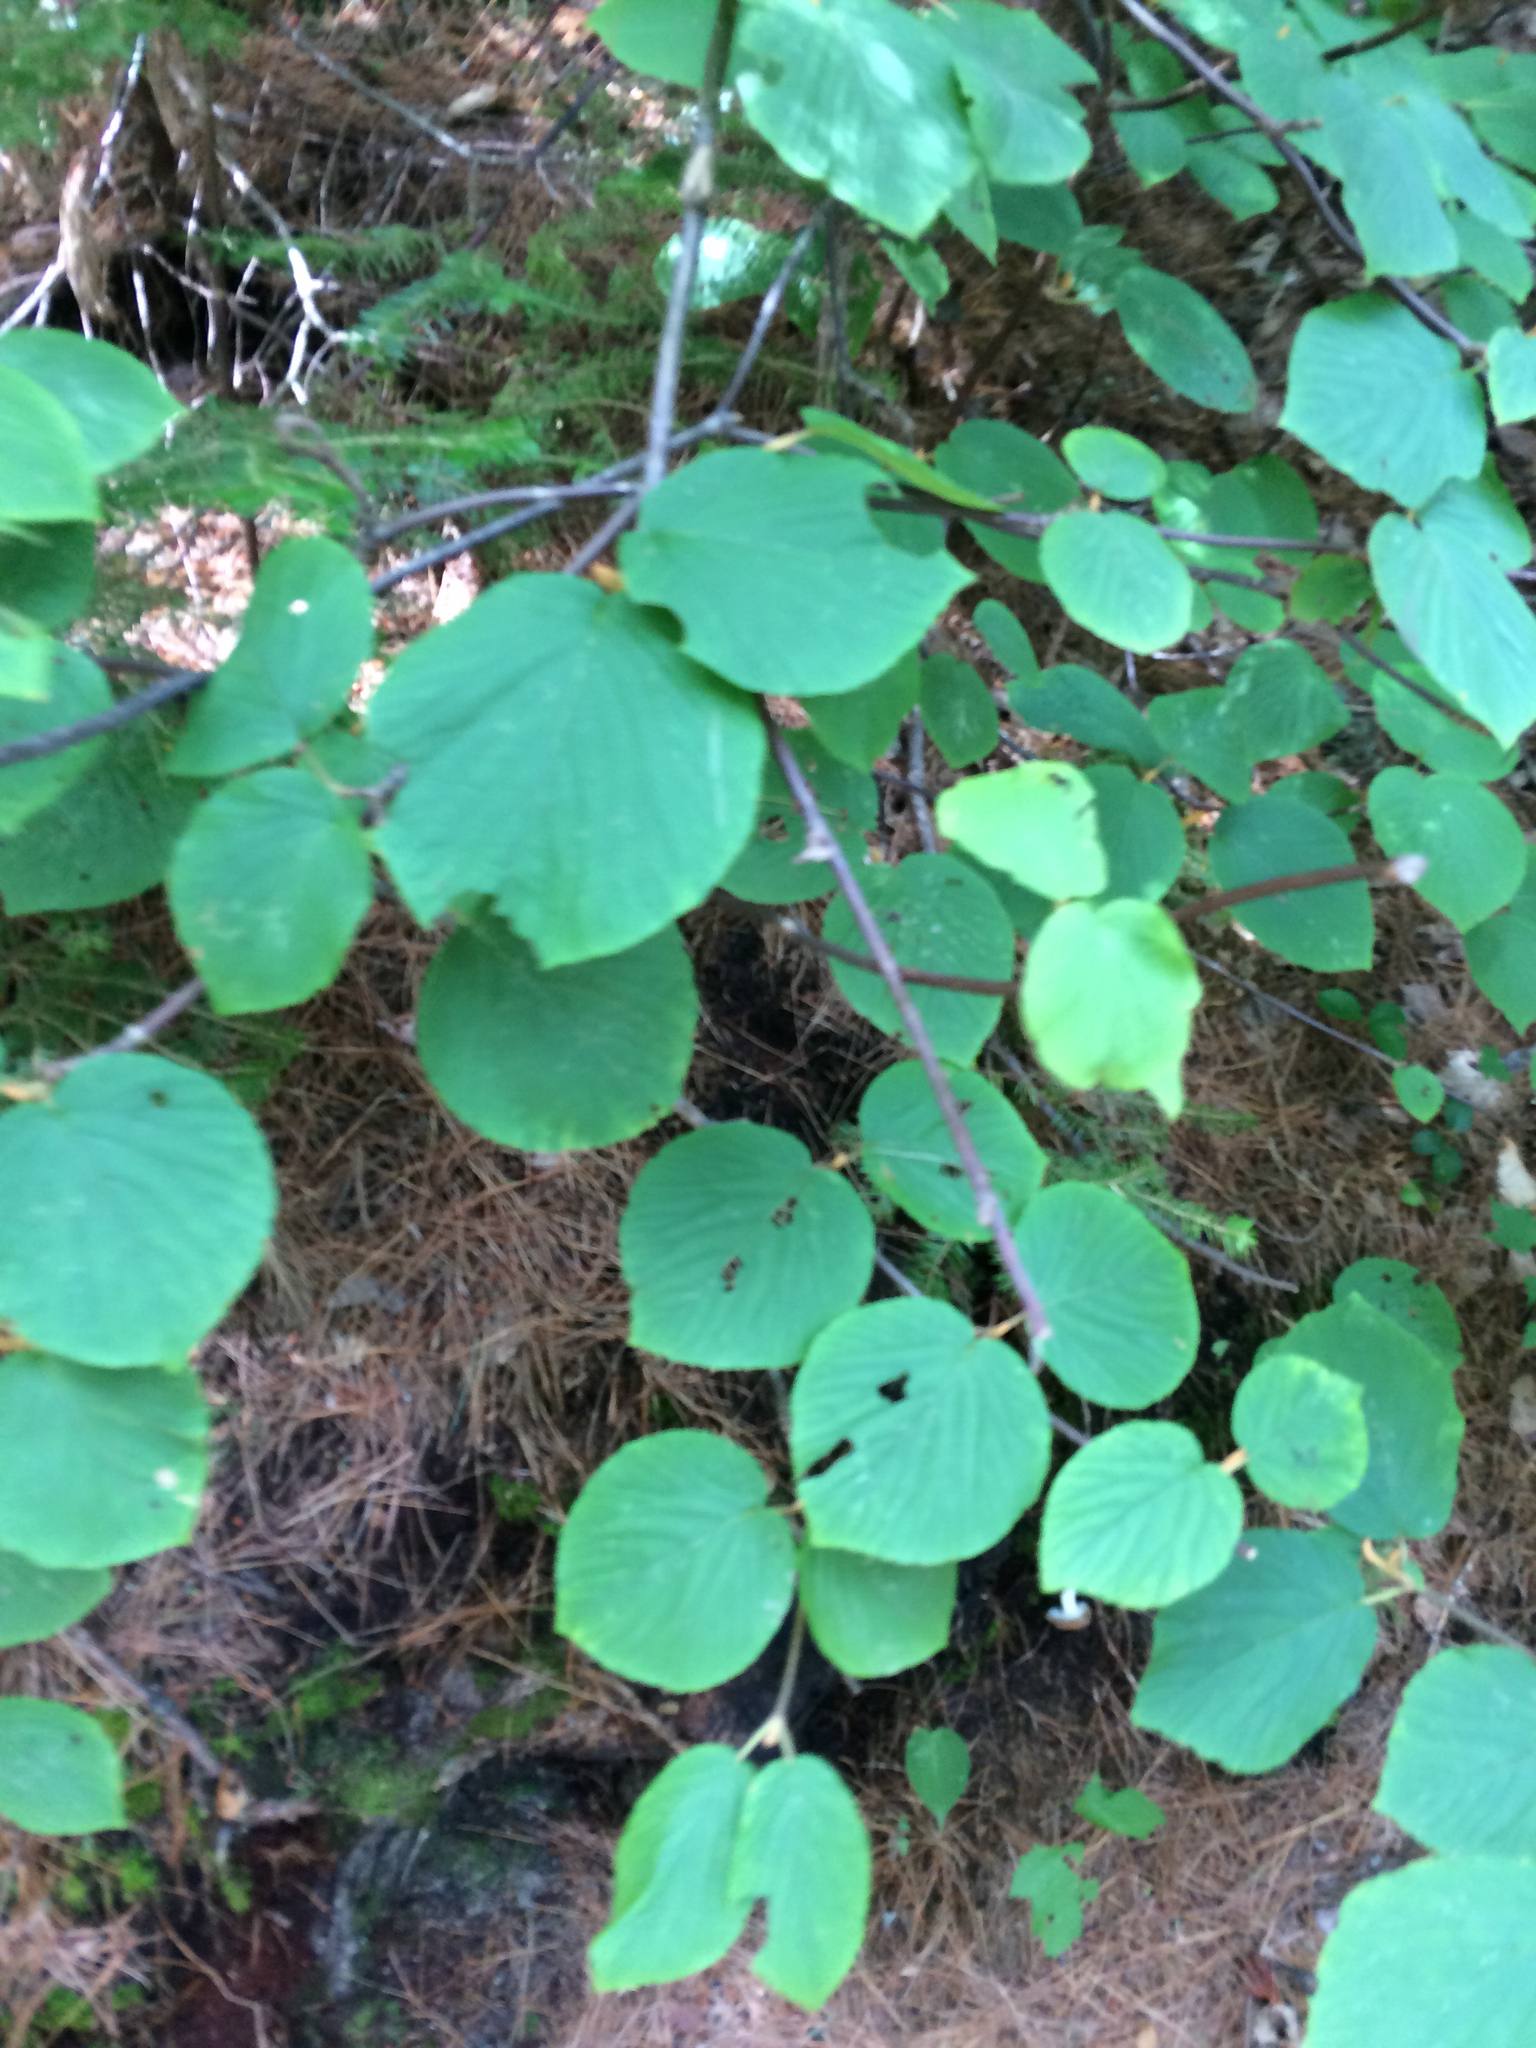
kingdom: Plantae
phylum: Tracheophyta
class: Magnoliopsida
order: Dipsacales
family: Viburnaceae
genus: Viburnum
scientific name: Viburnum lantanoides
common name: Hobblebush
